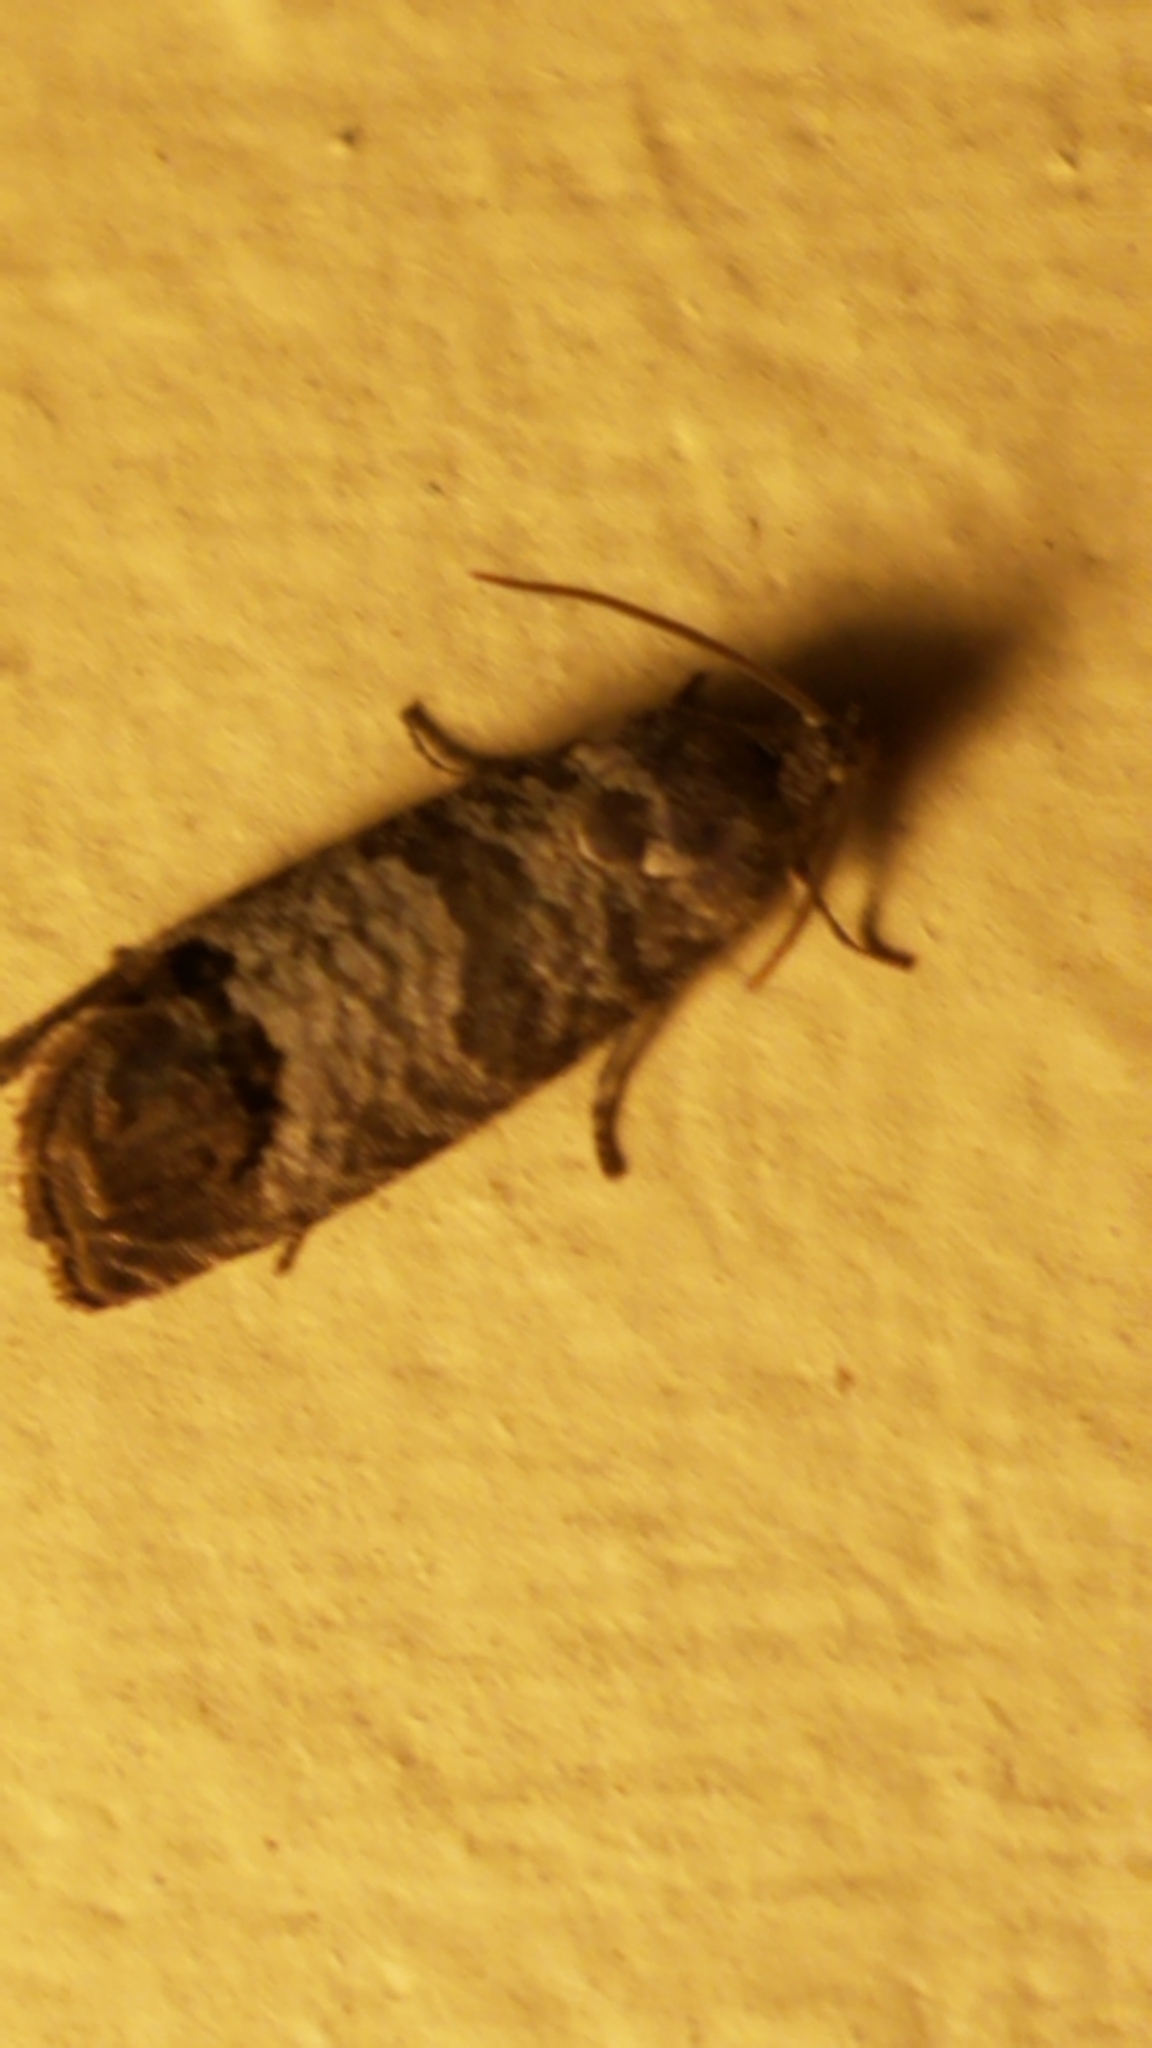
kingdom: Animalia
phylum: Arthropoda
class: Insecta
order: Lepidoptera
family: Tortricidae
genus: Cydia
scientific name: Cydia pomonella
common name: Codling moth
